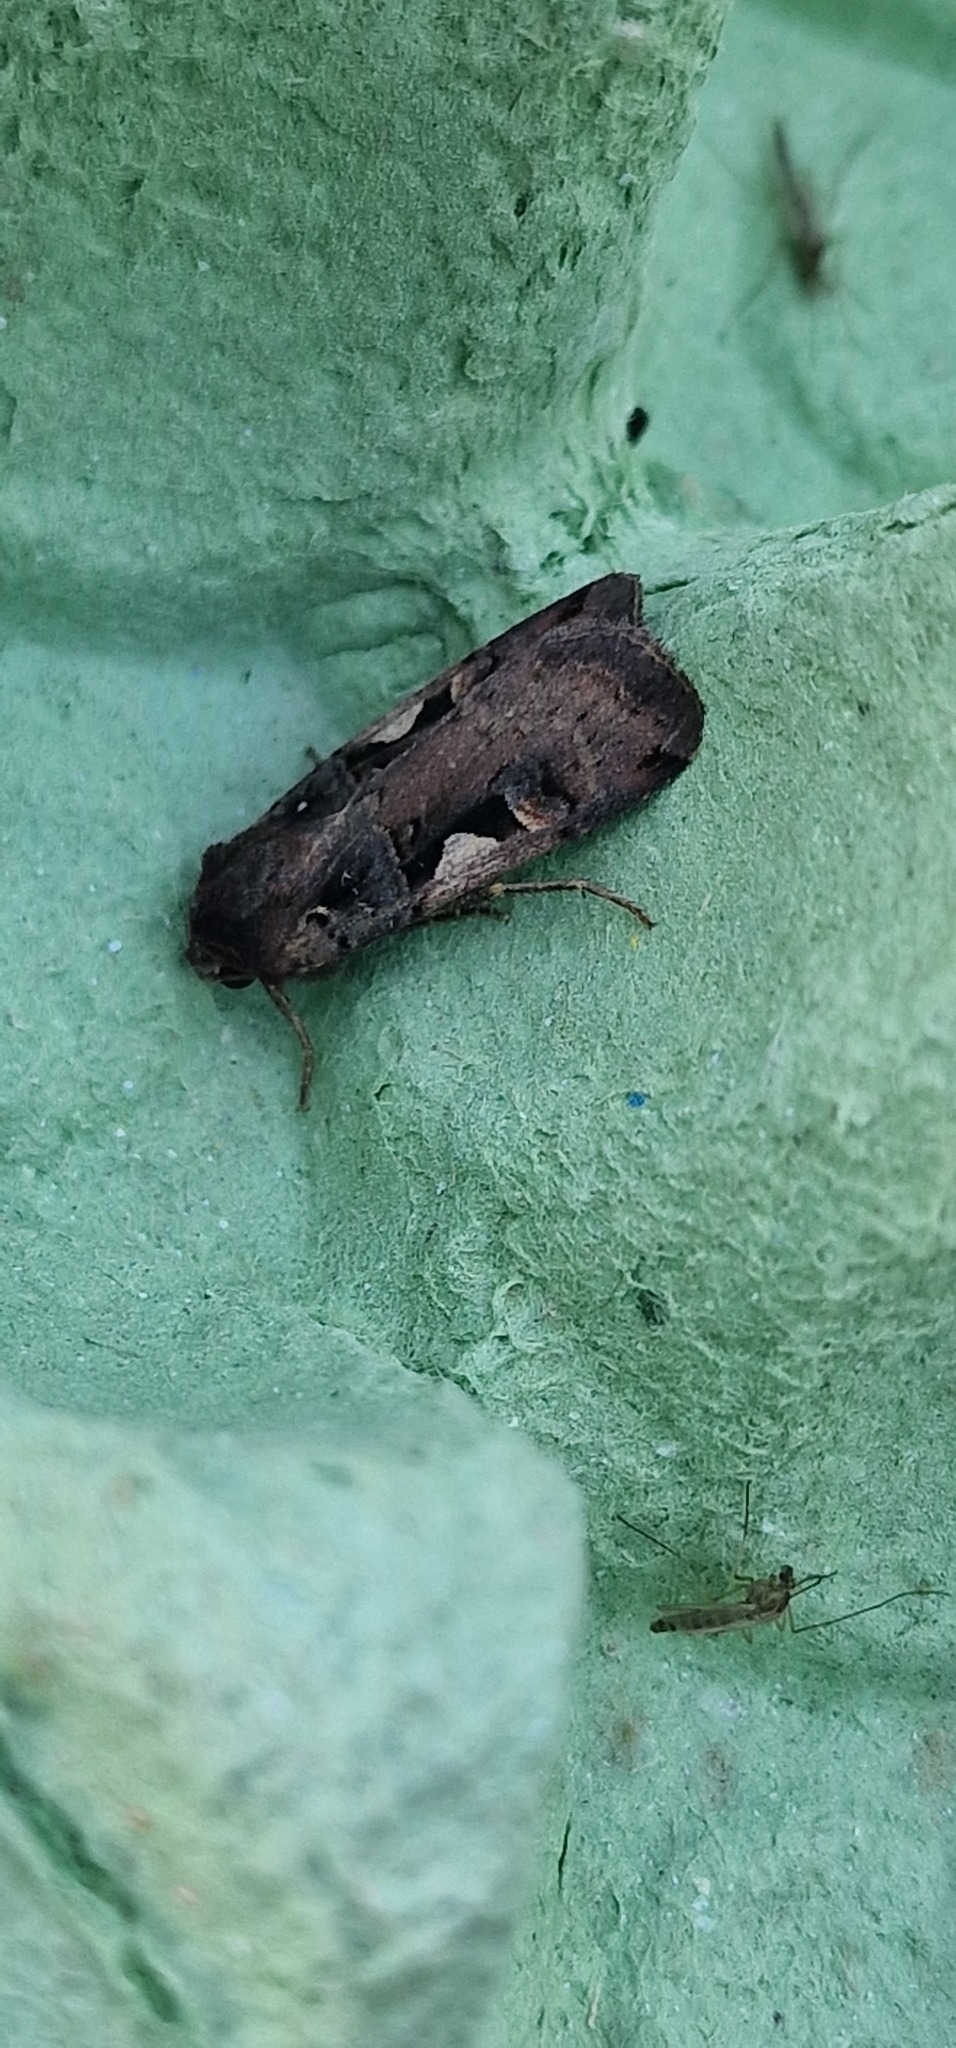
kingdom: Animalia
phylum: Arthropoda
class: Insecta
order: Lepidoptera
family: Noctuidae
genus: Xestia
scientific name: Xestia c-nigrum
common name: Setaceous hebrew character
